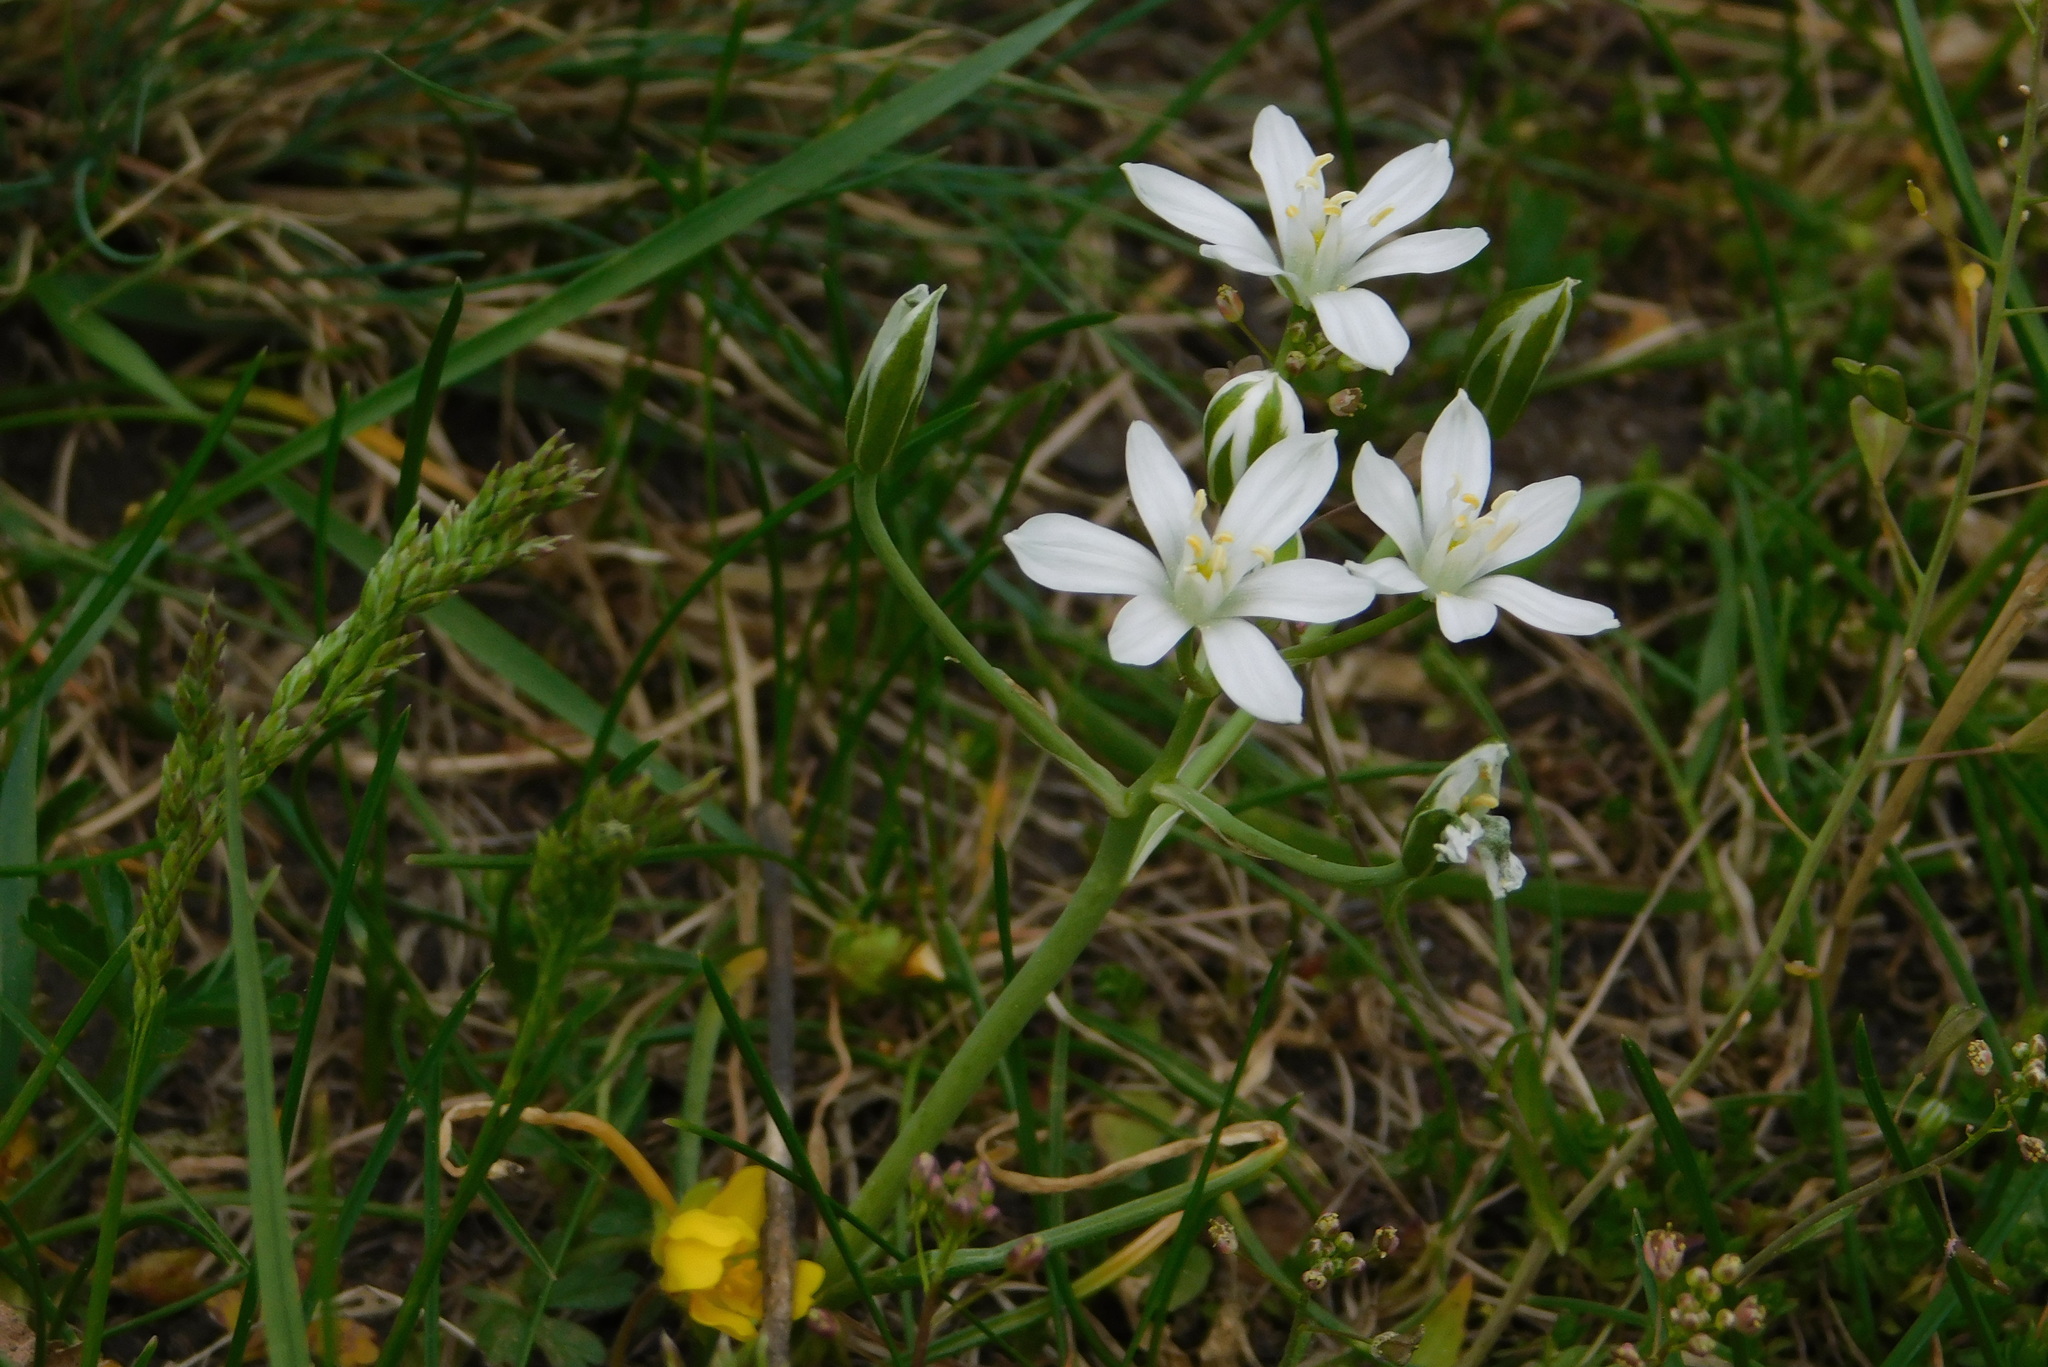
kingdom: Plantae
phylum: Tracheophyta
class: Liliopsida
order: Asparagales
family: Asparagaceae
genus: Ornithogalum
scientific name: Ornithogalum umbellatum
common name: Garden star-of-bethlehem
